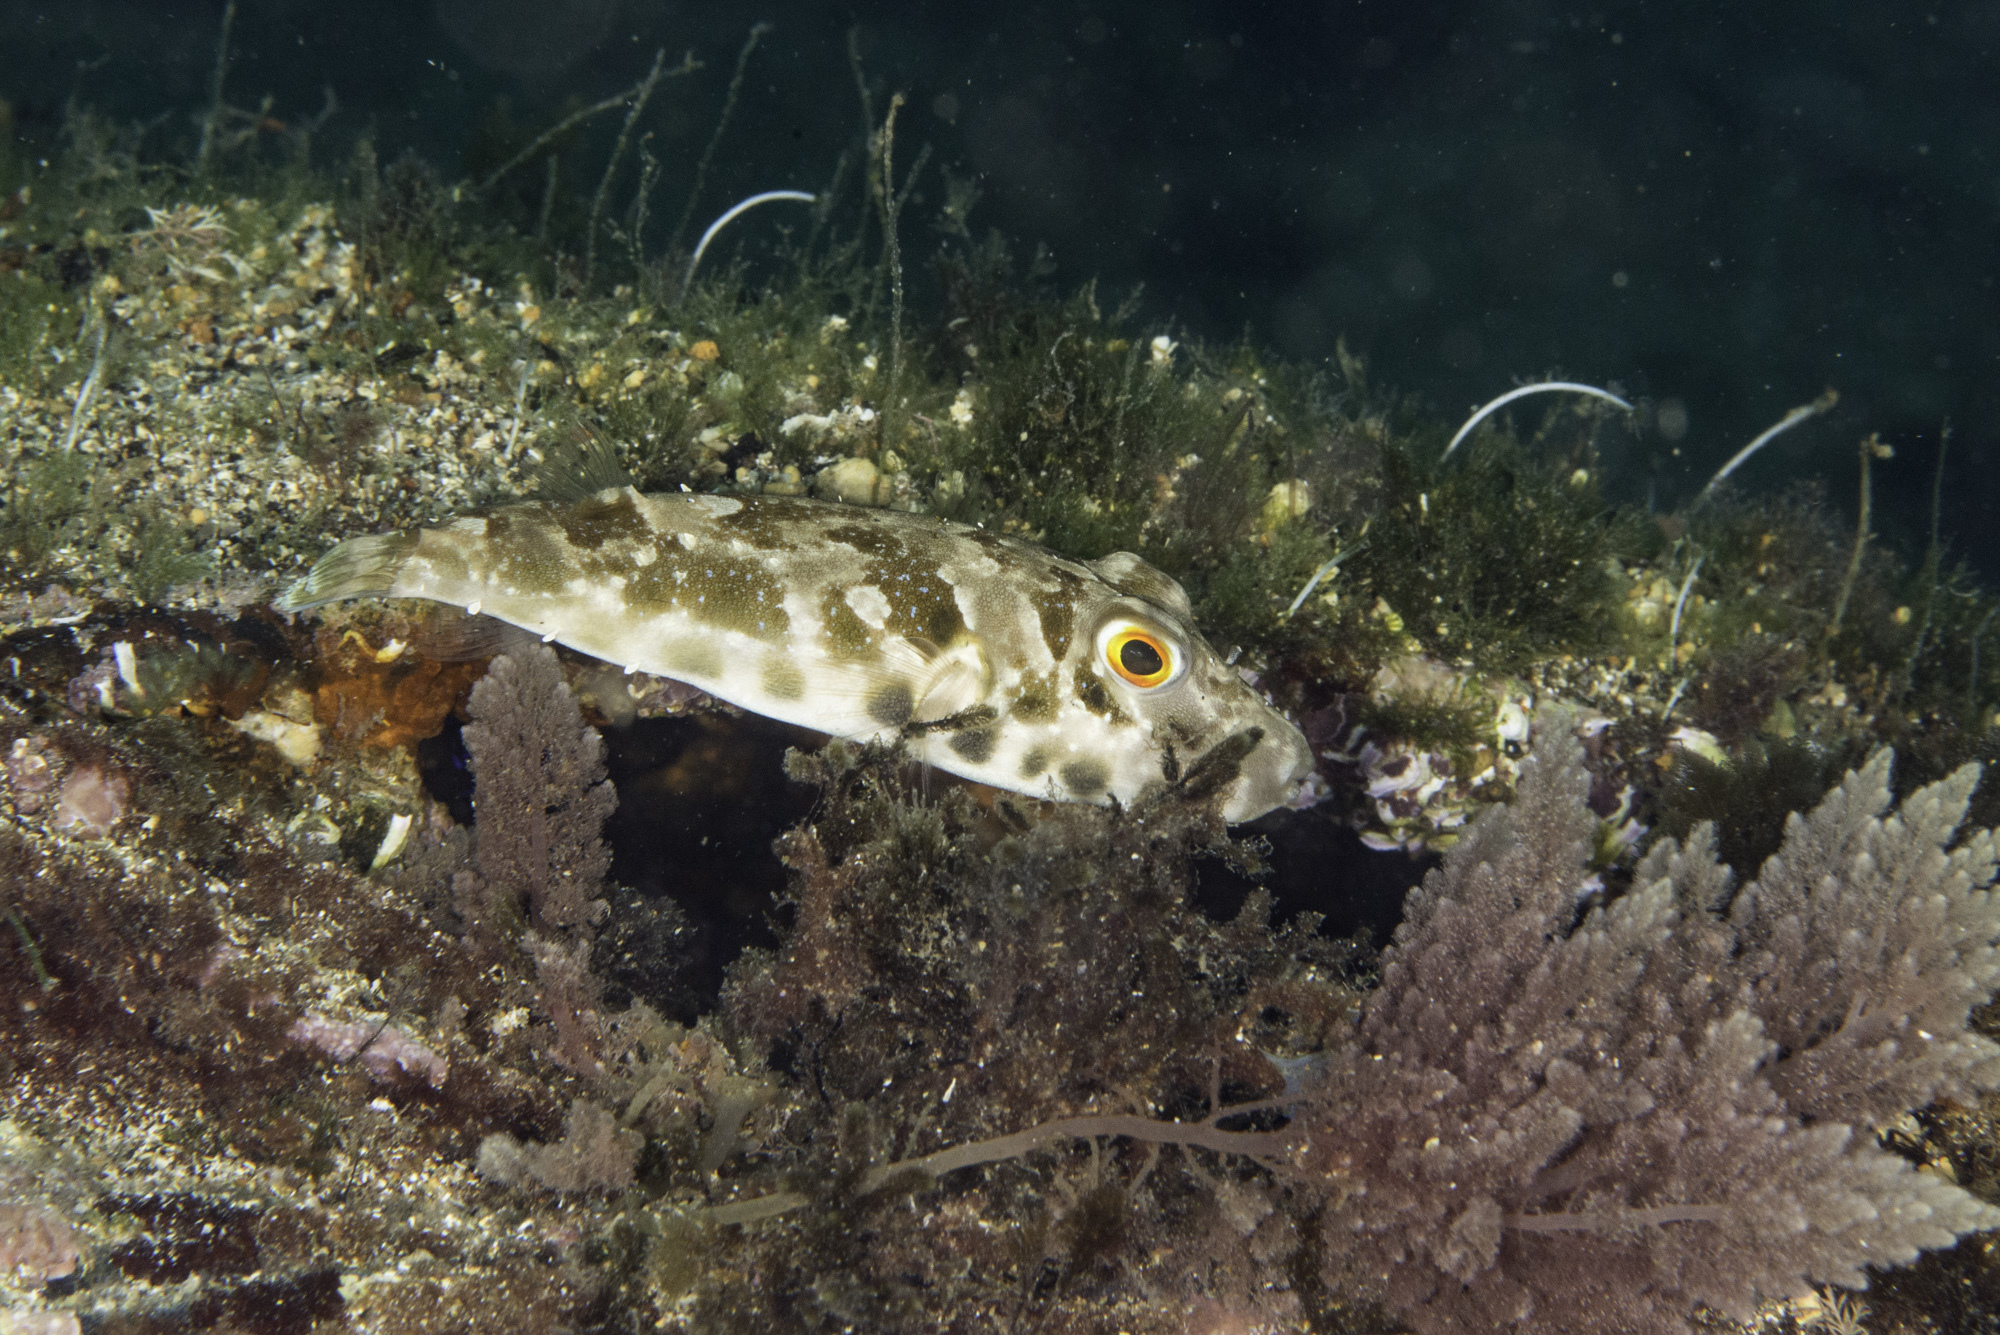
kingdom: Animalia
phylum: Chordata
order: Tetraodontiformes
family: Tetraodontidae
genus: Sphoeroides
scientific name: Sphoeroides marmoratus
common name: Guinean puffer
